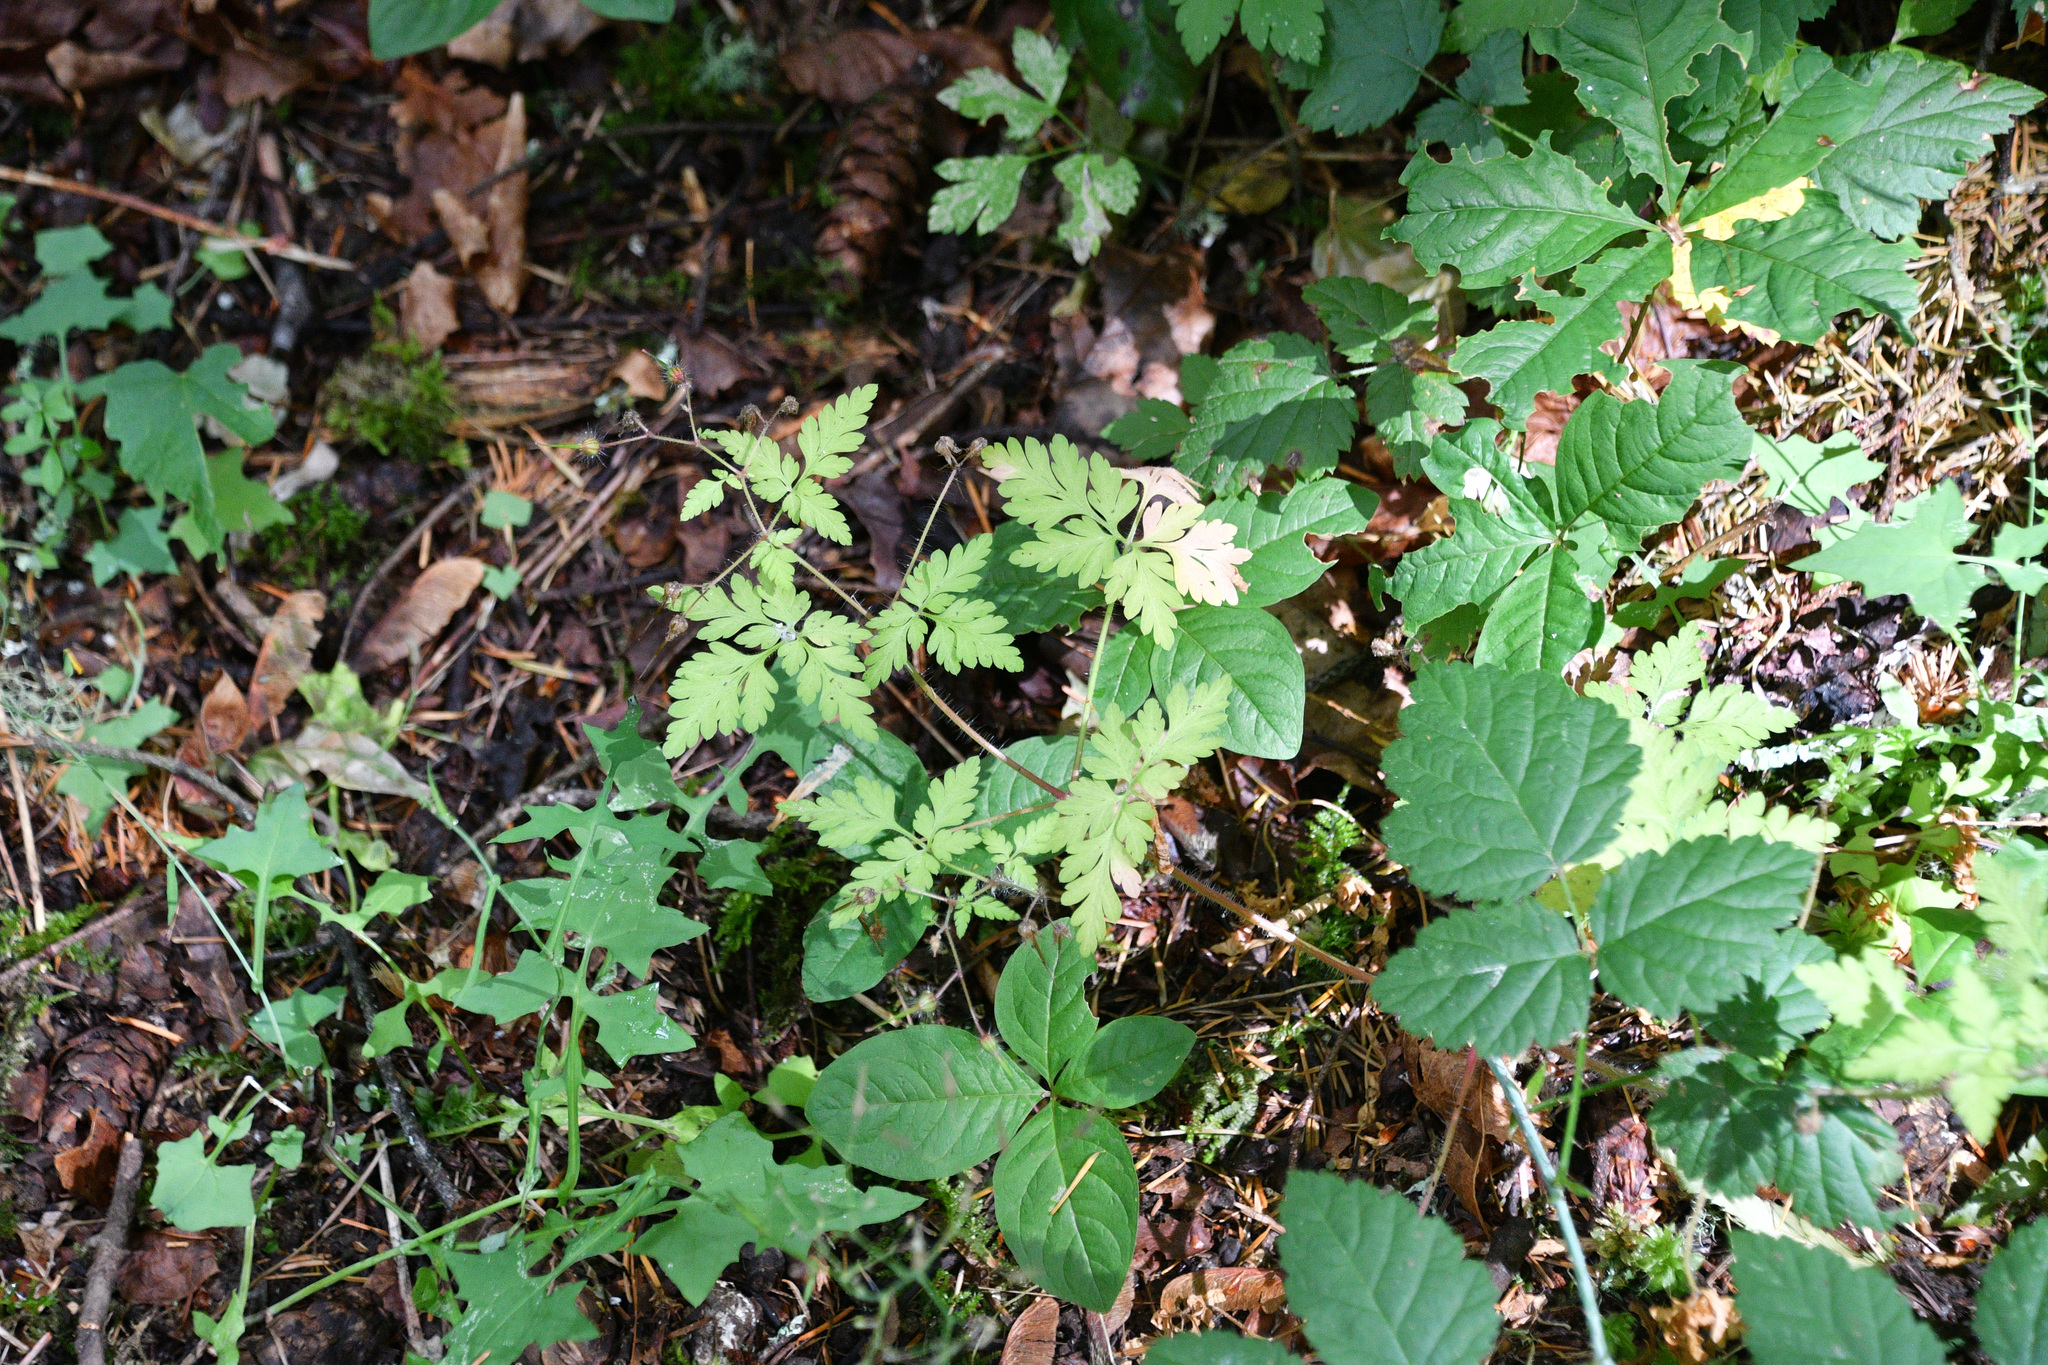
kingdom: Plantae
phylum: Tracheophyta
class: Magnoliopsida
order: Geraniales
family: Geraniaceae
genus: Geranium
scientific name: Geranium robertianum
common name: Herb-robert
